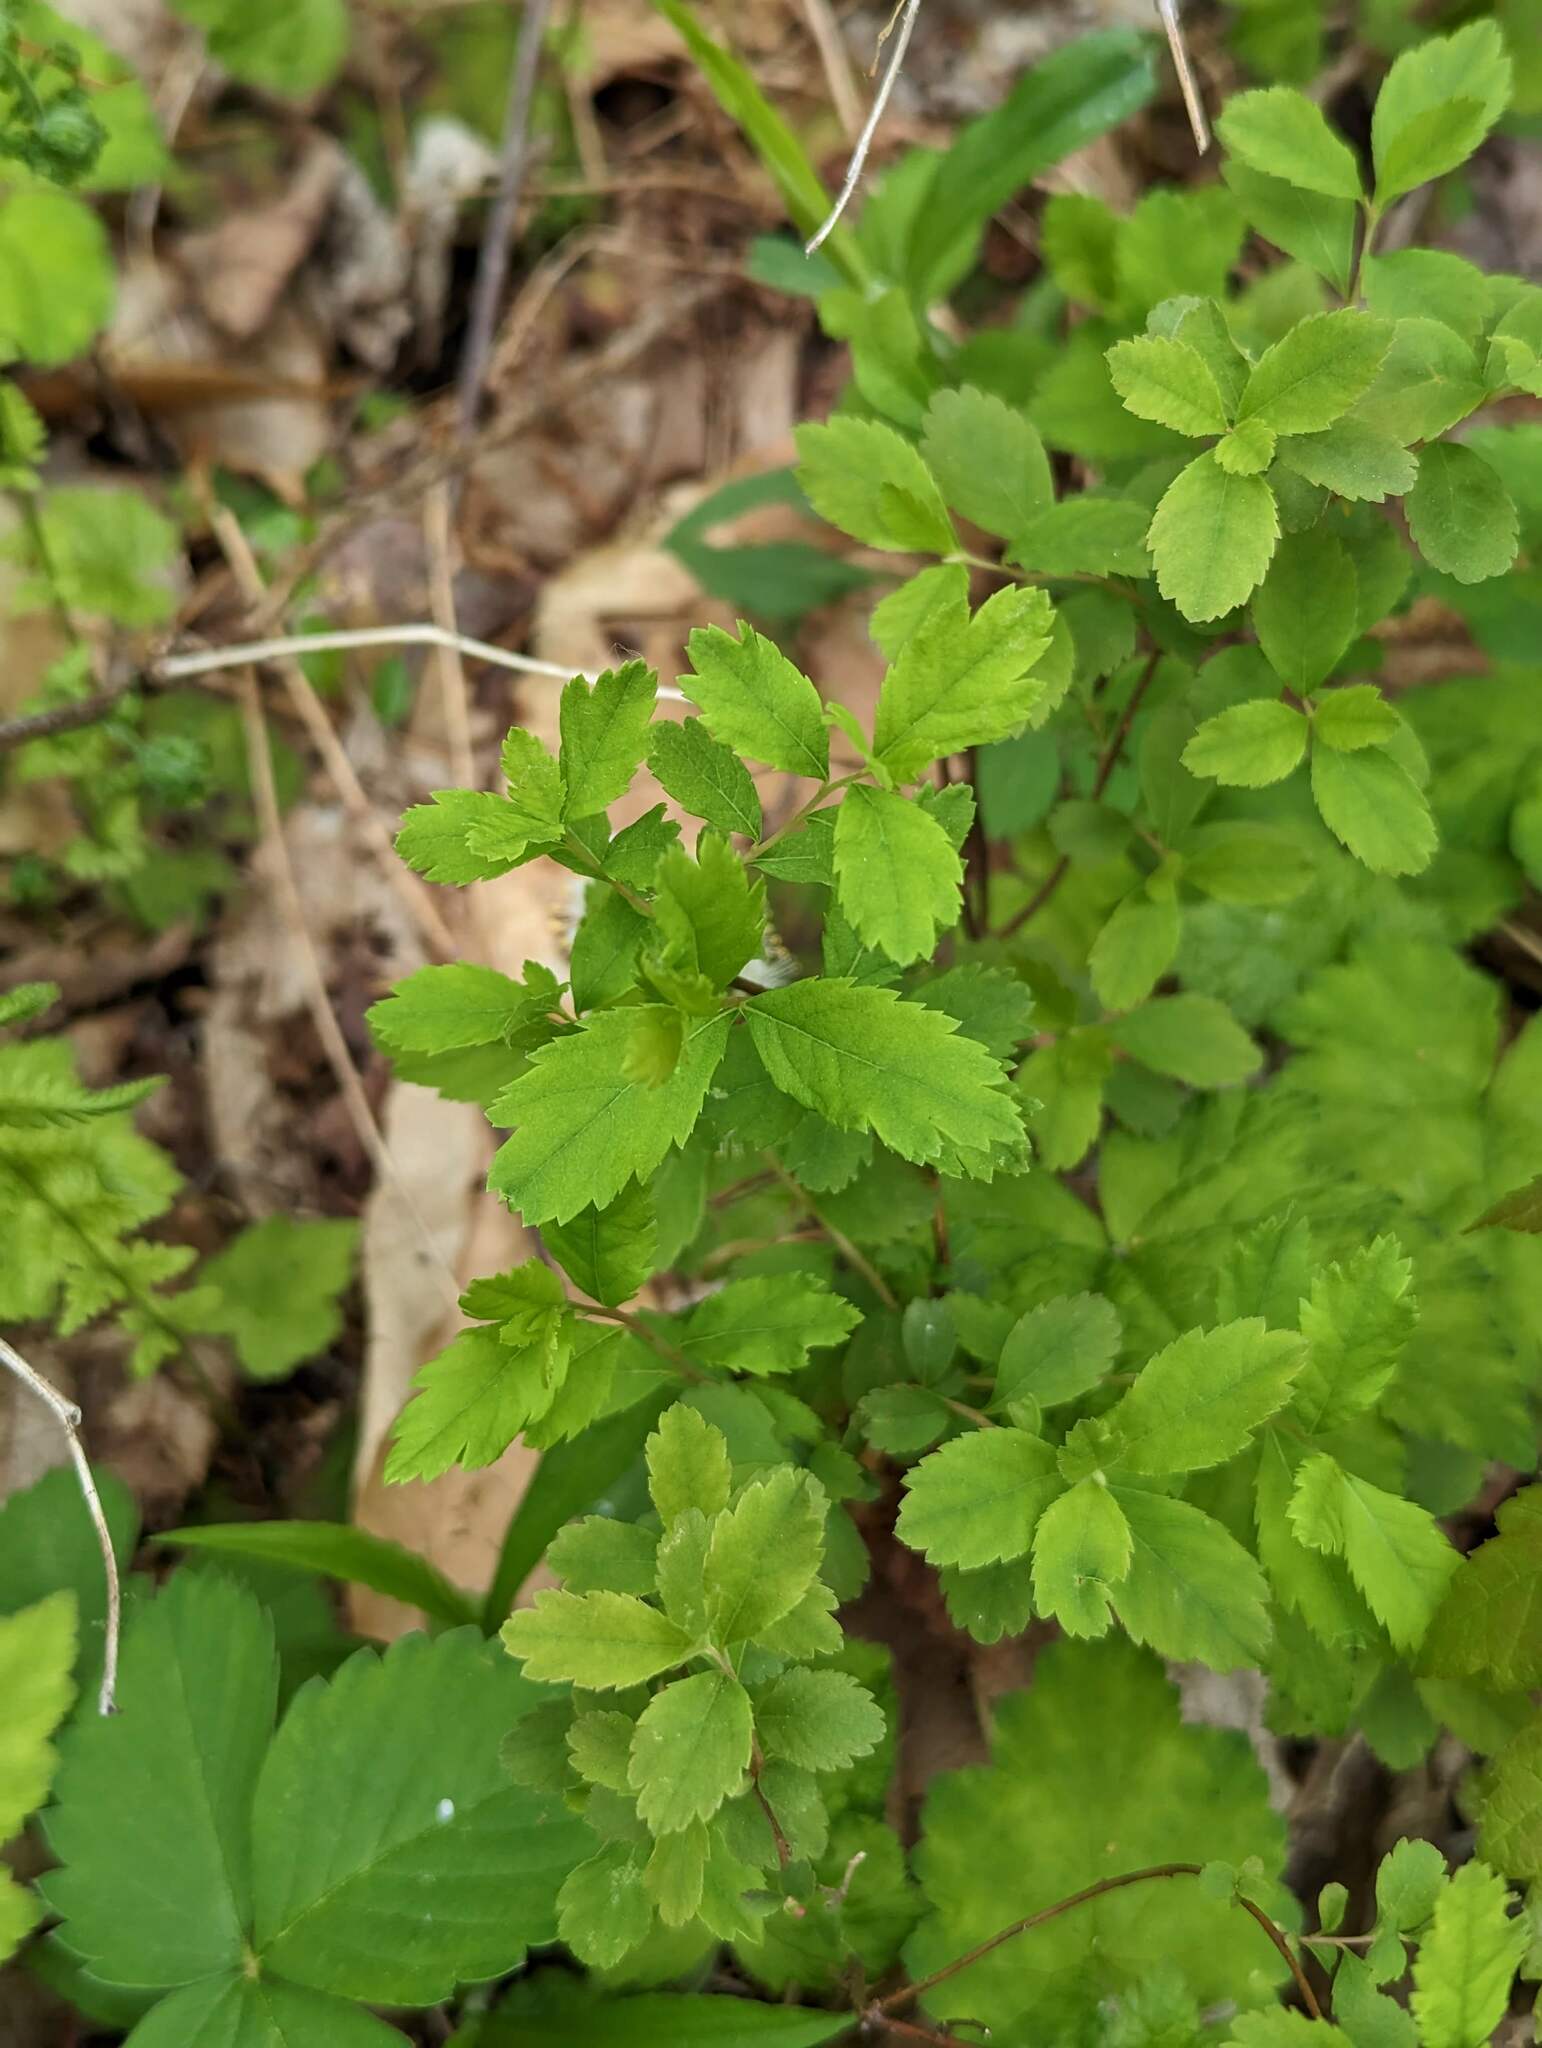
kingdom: Plantae
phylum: Tracheophyta
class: Magnoliopsida
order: Rosales
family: Rosaceae
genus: Spiraea
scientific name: Spiraea alba
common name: Pale bridewort
